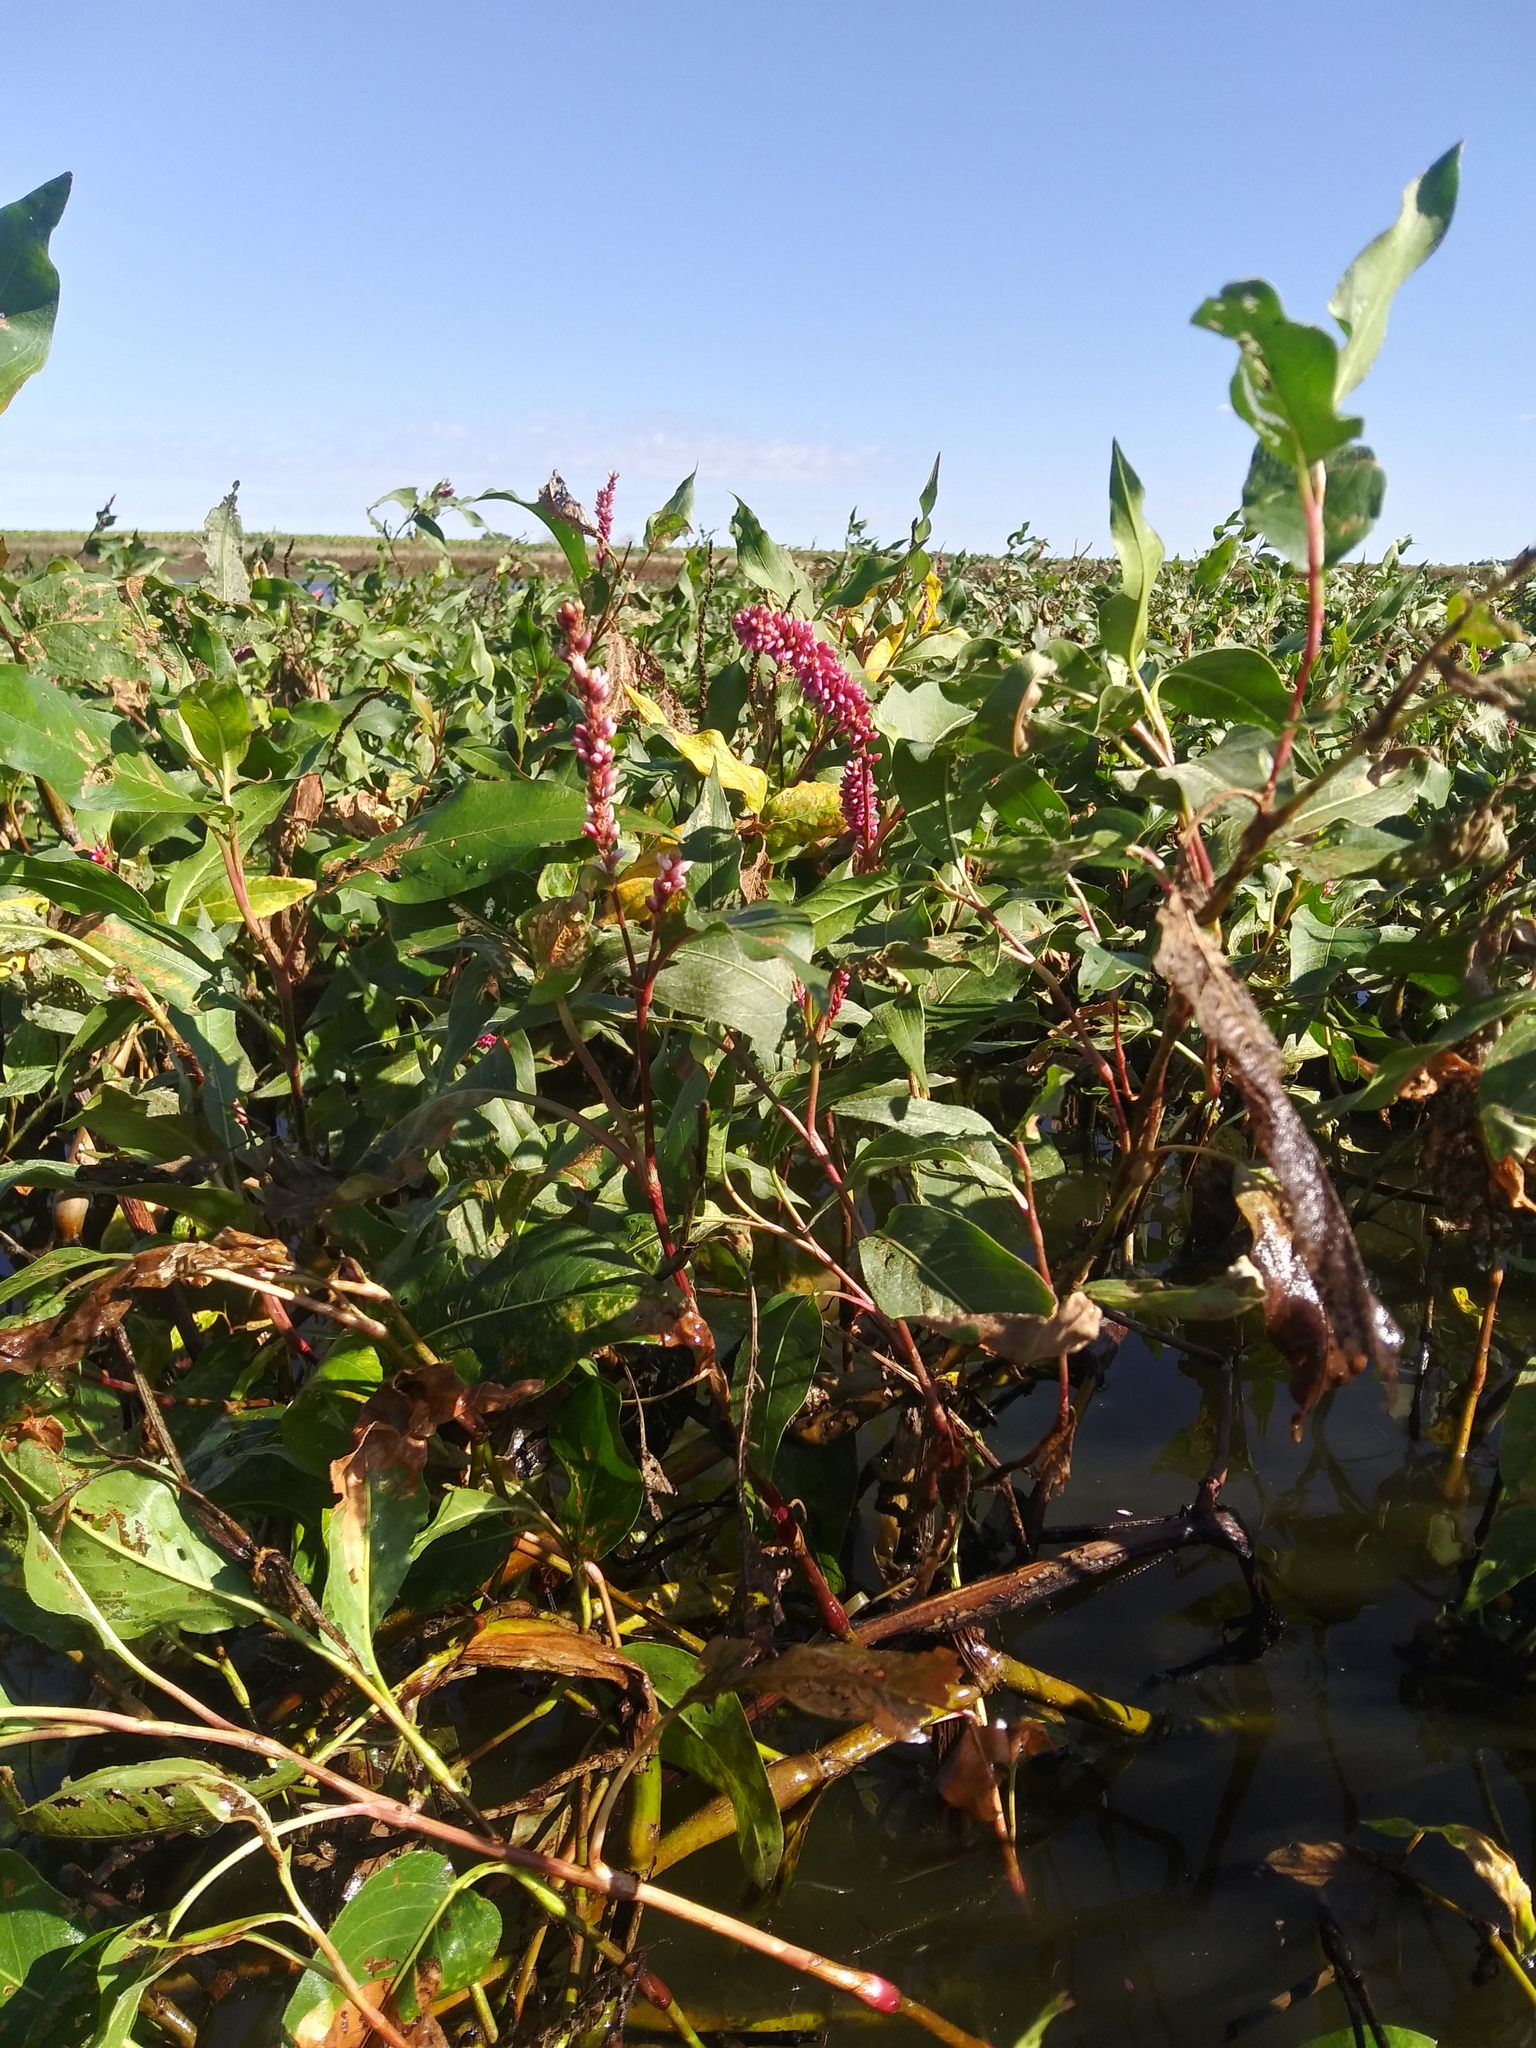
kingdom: Plantae
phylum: Tracheophyta
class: Magnoliopsida
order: Caryophyllales
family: Polygonaceae
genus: Persicaria
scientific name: Persicaria amphibia
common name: Amphibious bistort
